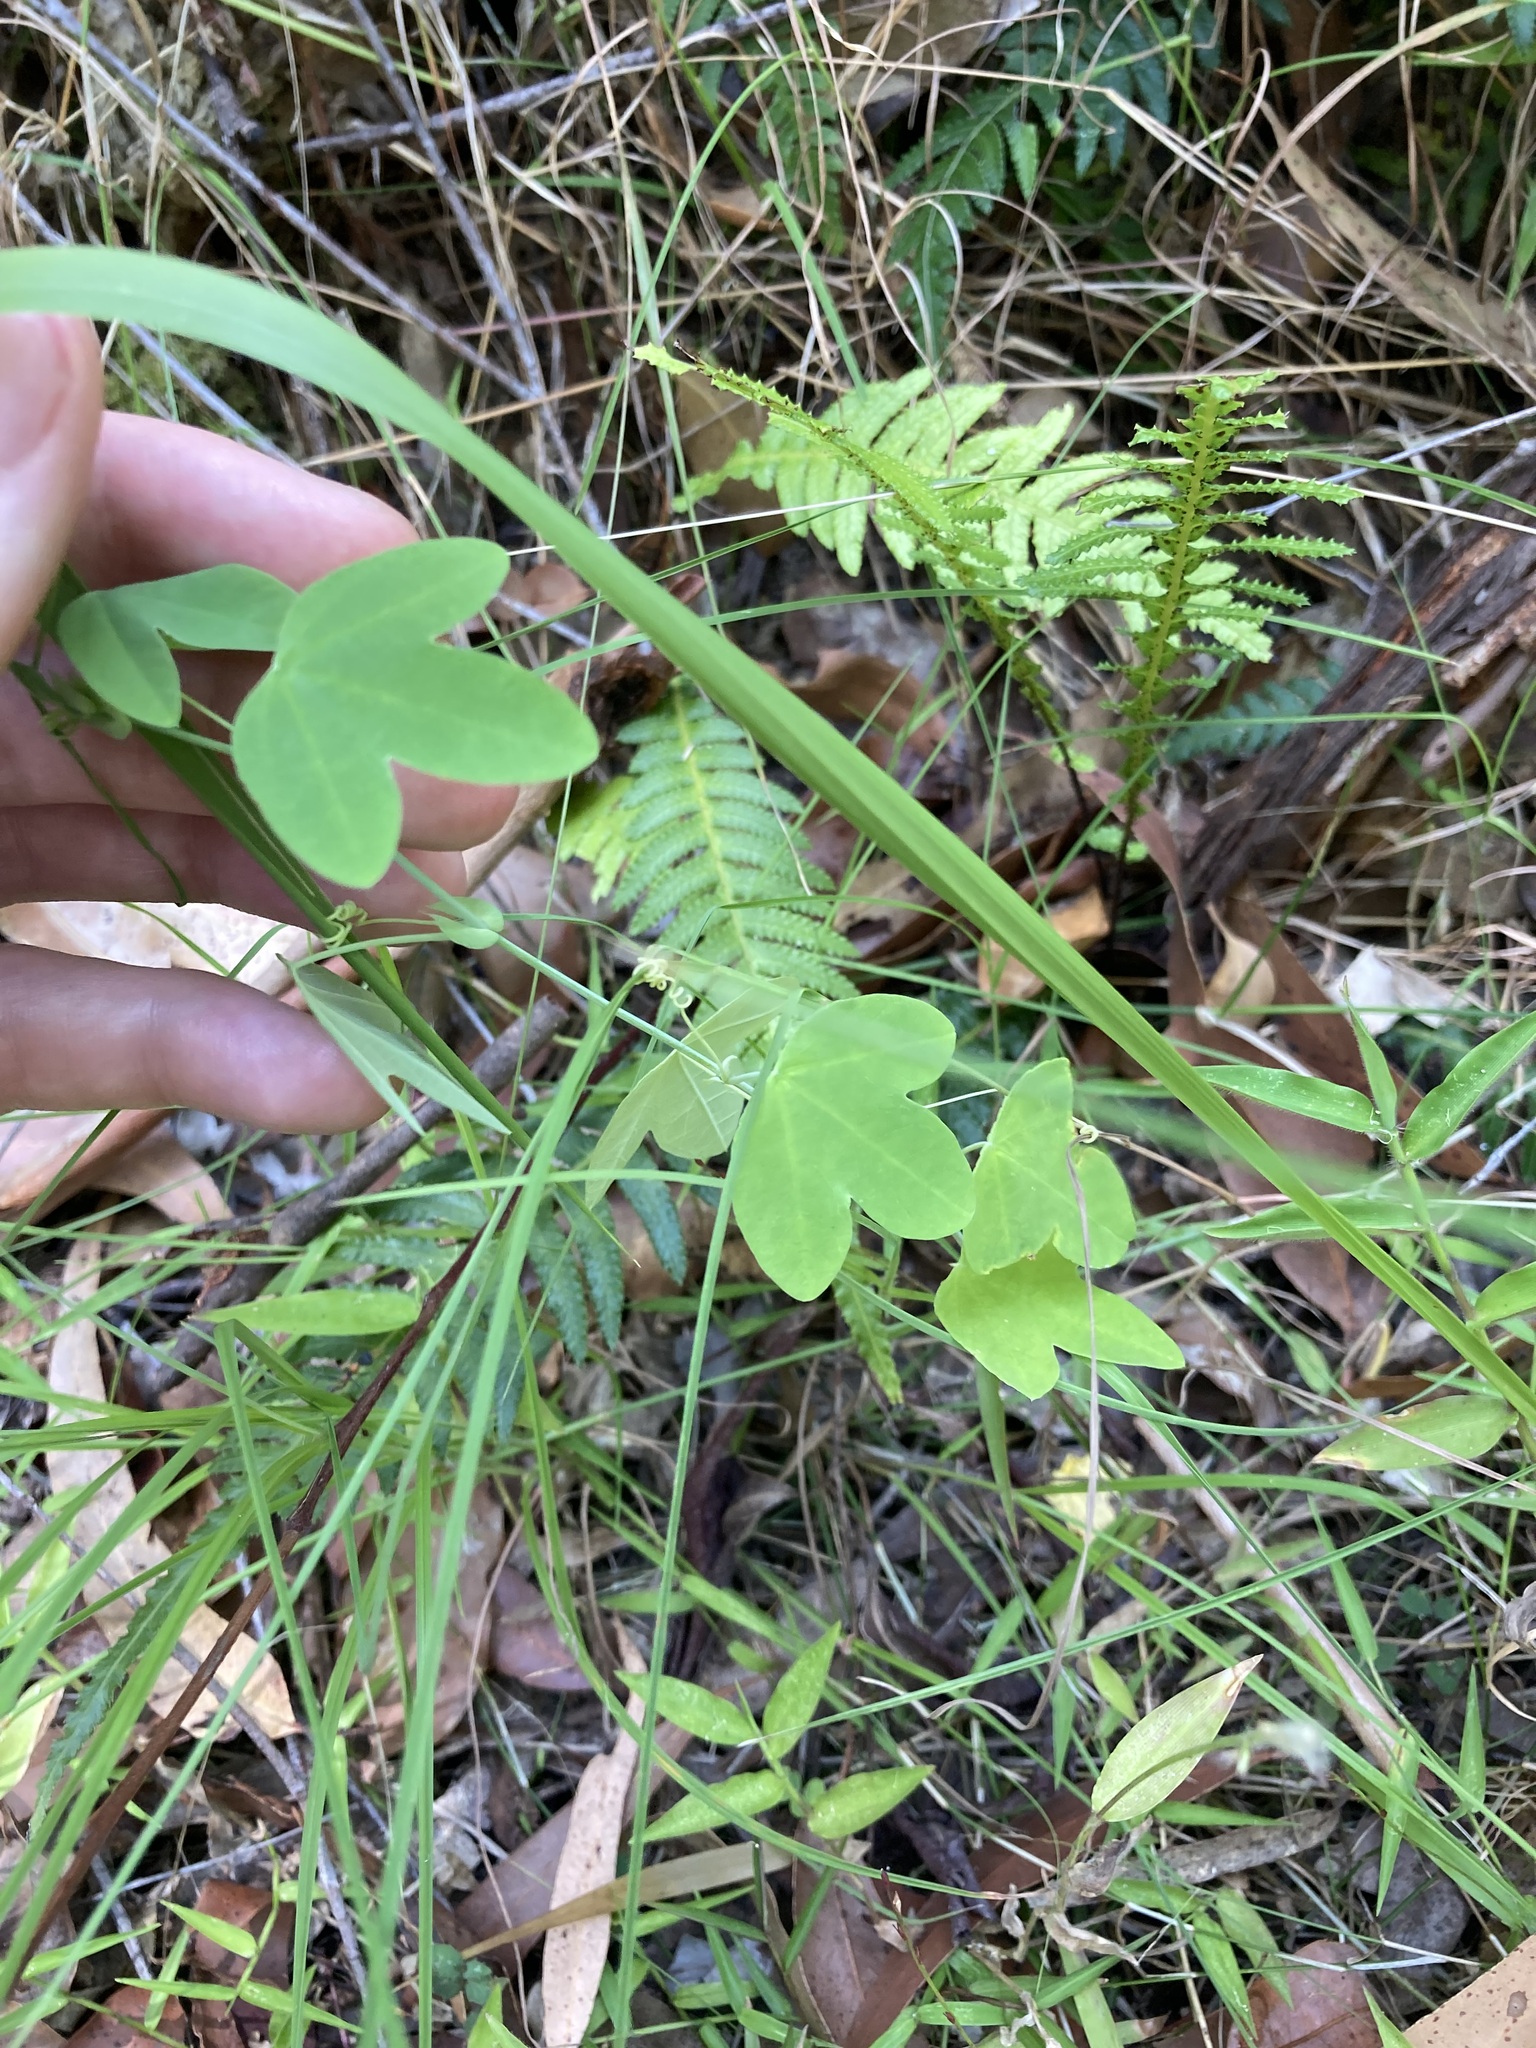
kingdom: Plantae
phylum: Tracheophyta
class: Magnoliopsida
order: Malpighiales
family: Passifloraceae
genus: Passiflora
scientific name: Passiflora subpeltata
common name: White passionflower
